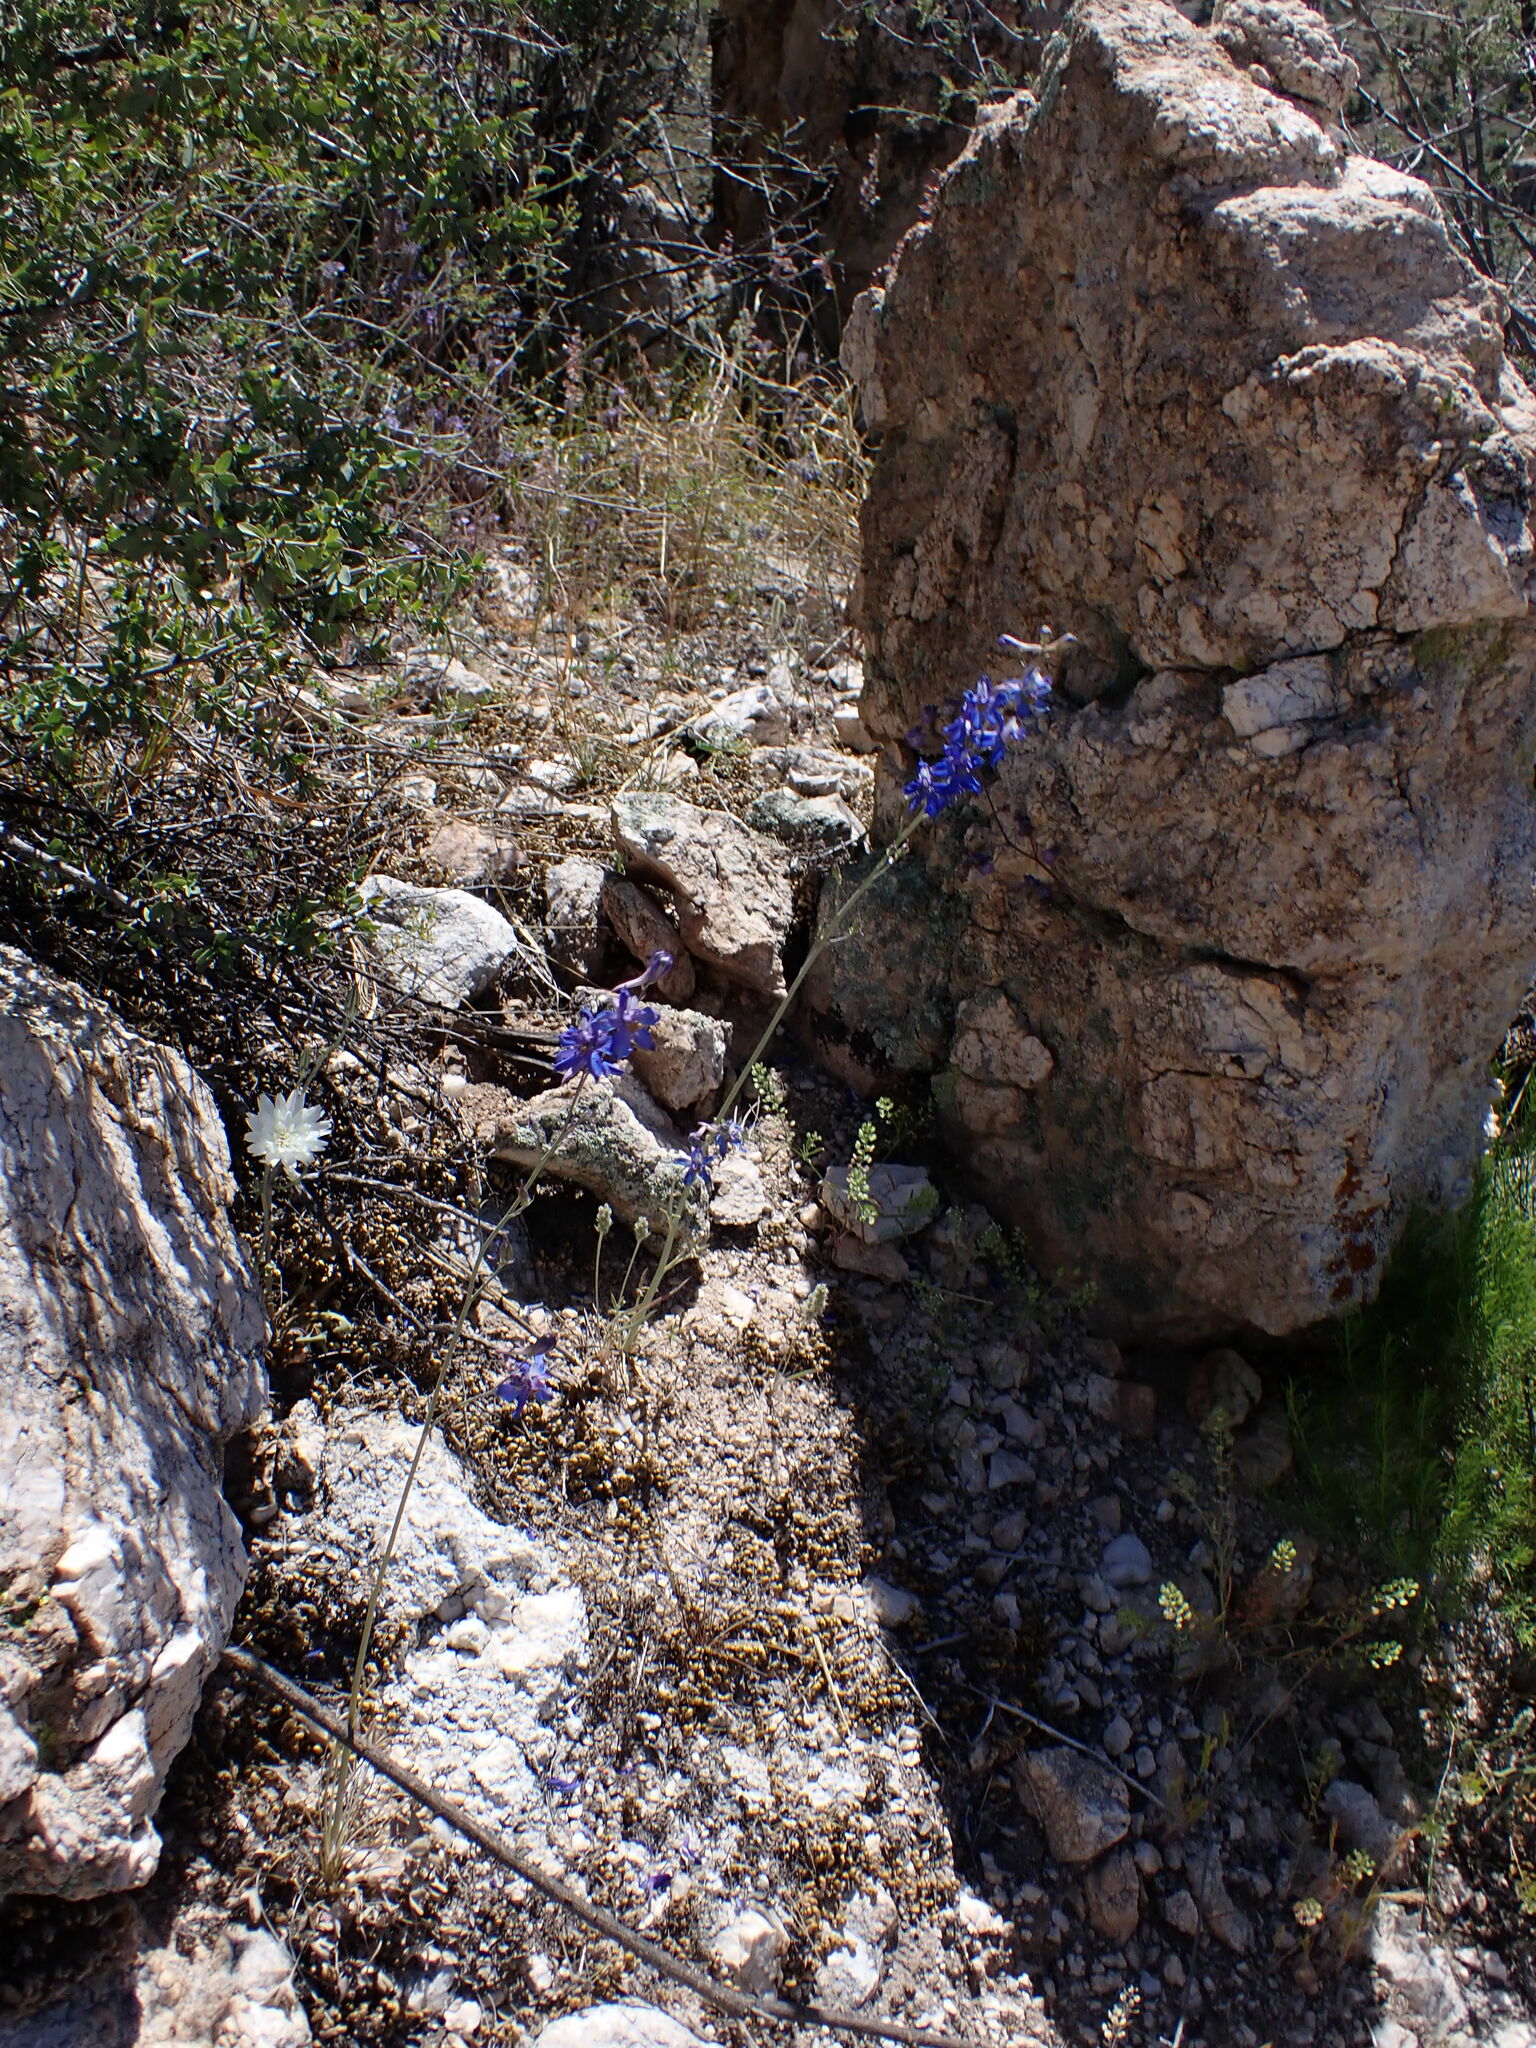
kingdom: Plantae
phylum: Tracheophyta
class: Magnoliopsida
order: Ranunculales
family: Ranunculaceae
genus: Delphinium
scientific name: Delphinium scaposum
